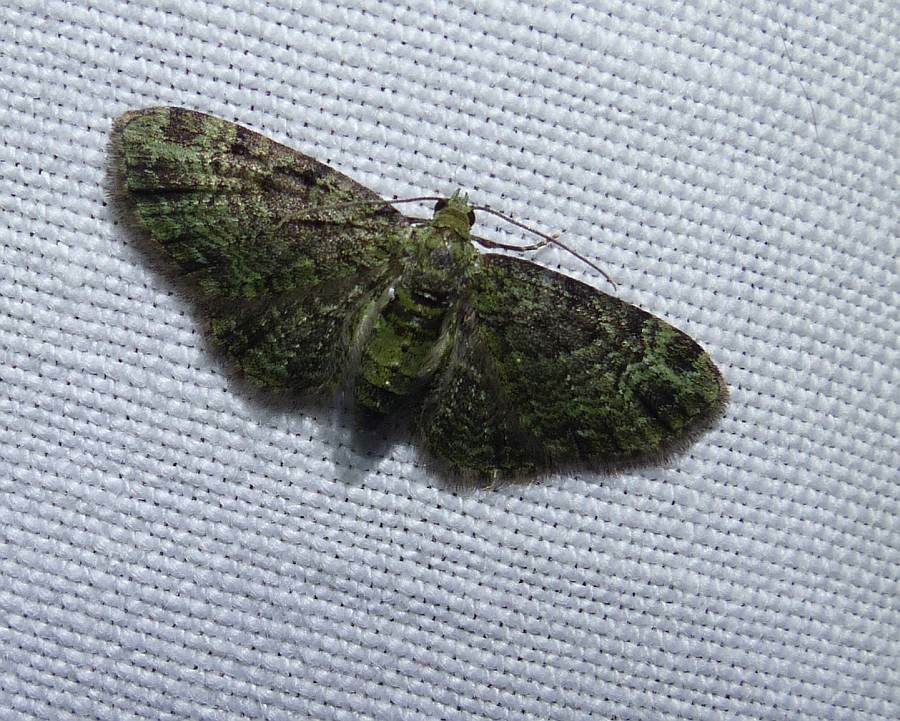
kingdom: Animalia
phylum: Arthropoda
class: Insecta
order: Lepidoptera
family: Geometridae
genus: Pasiphila
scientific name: Pasiphila rectangulata
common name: Green pug
